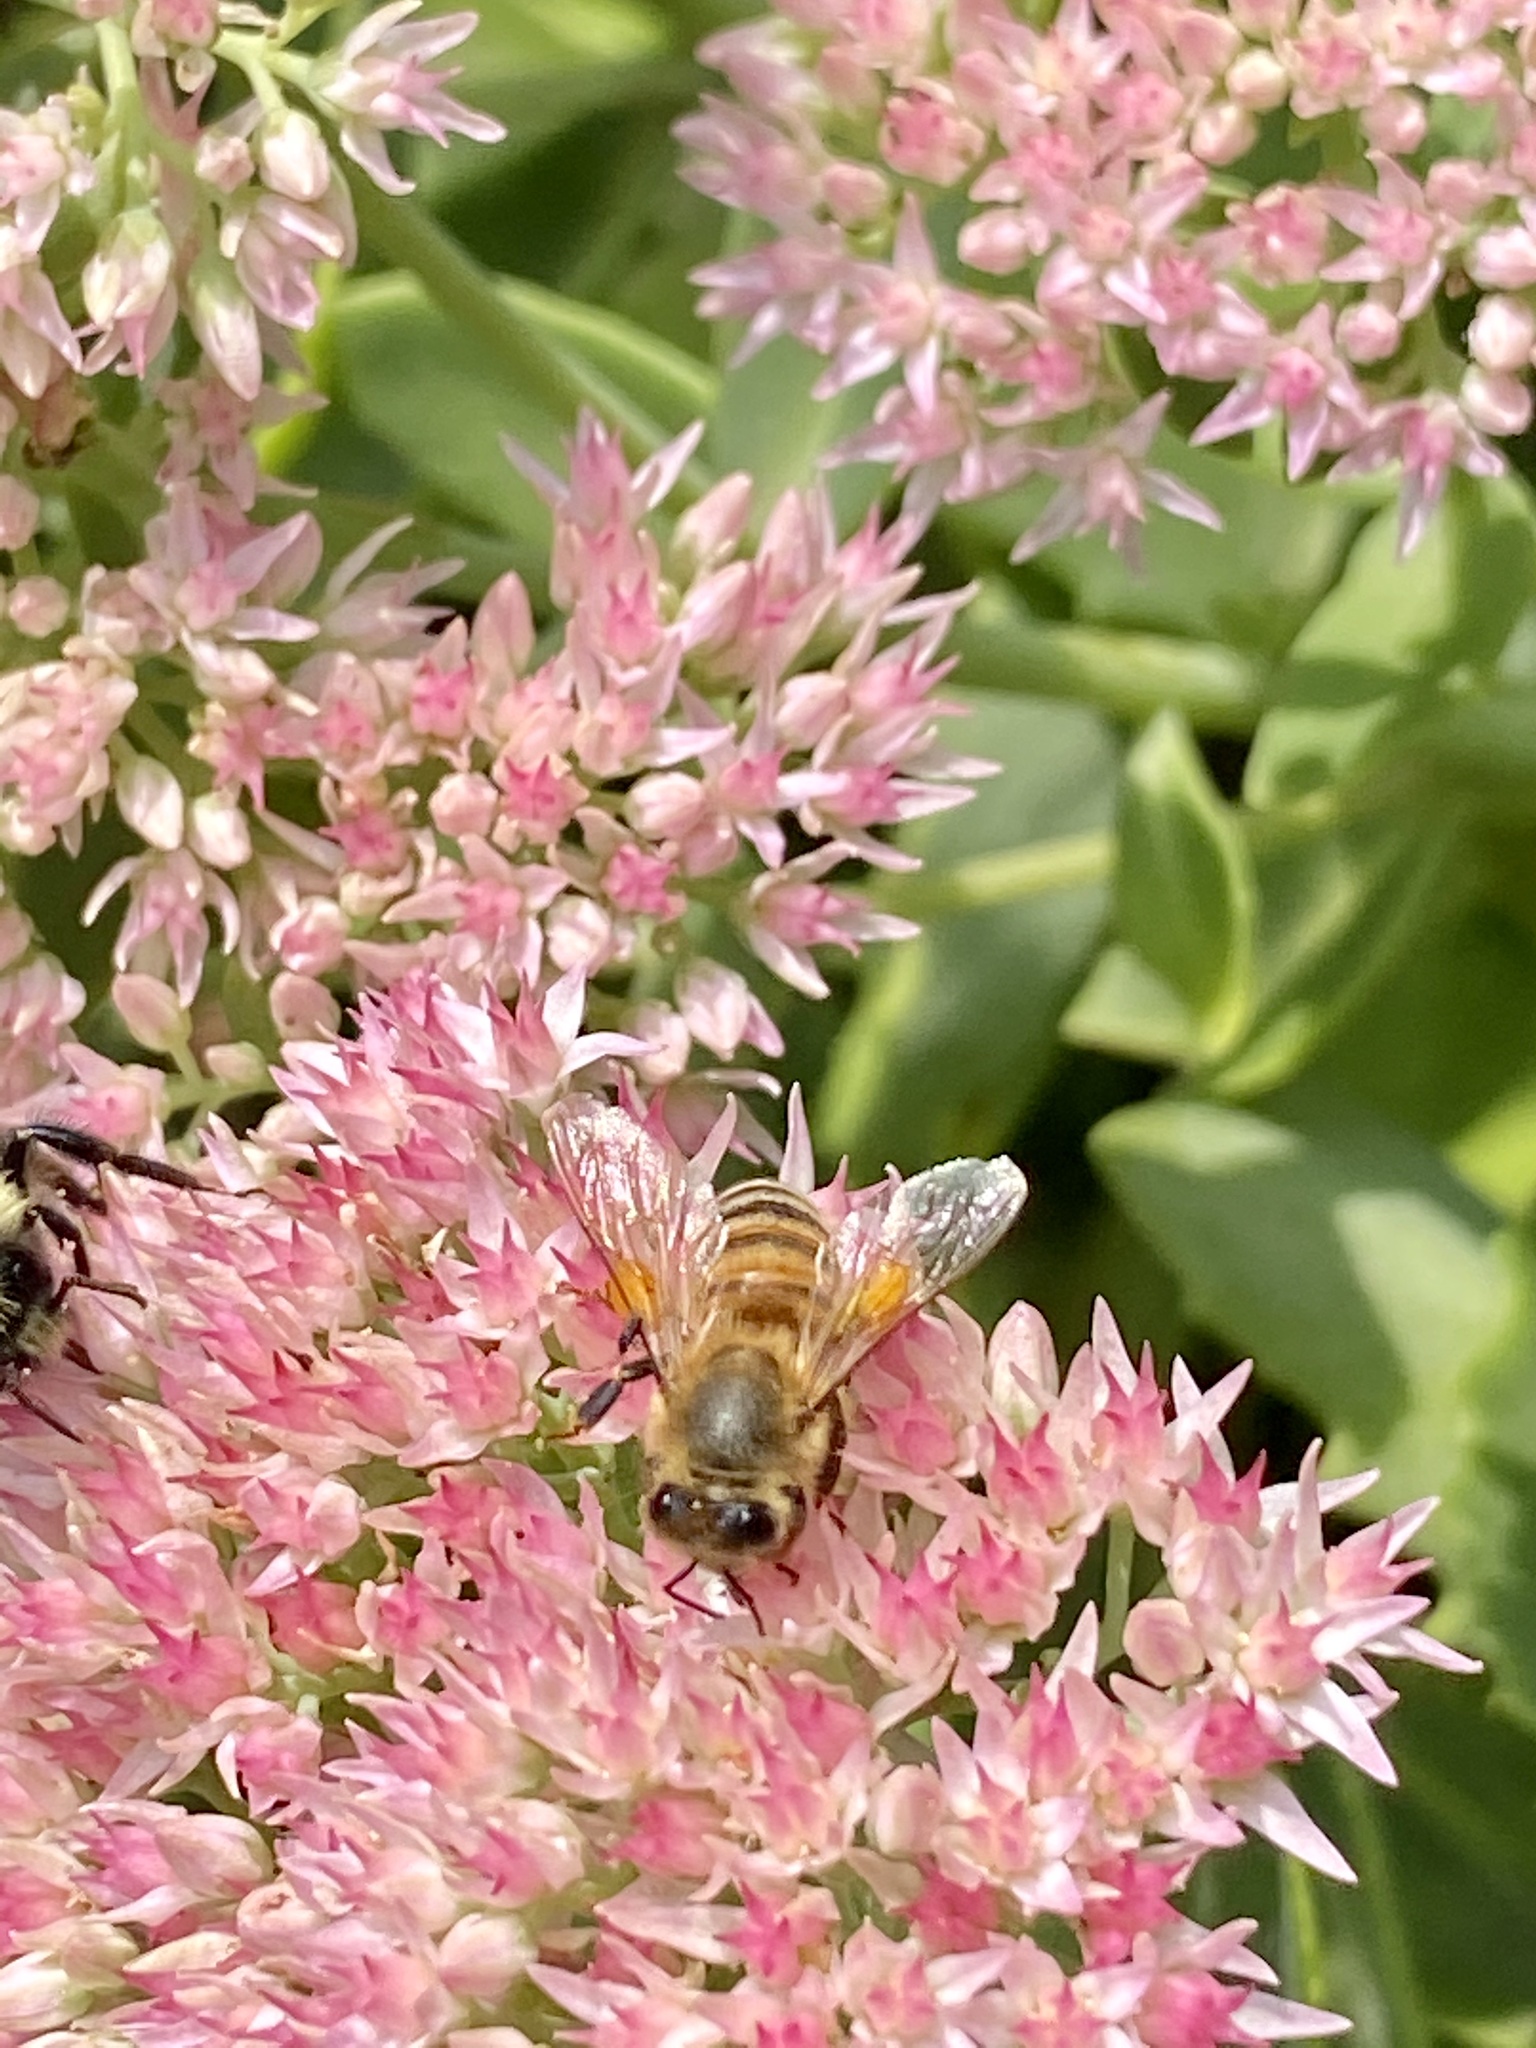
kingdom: Animalia
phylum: Arthropoda
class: Insecta
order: Hymenoptera
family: Apidae
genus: Apis
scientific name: Apis mellifera
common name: Honey bee
